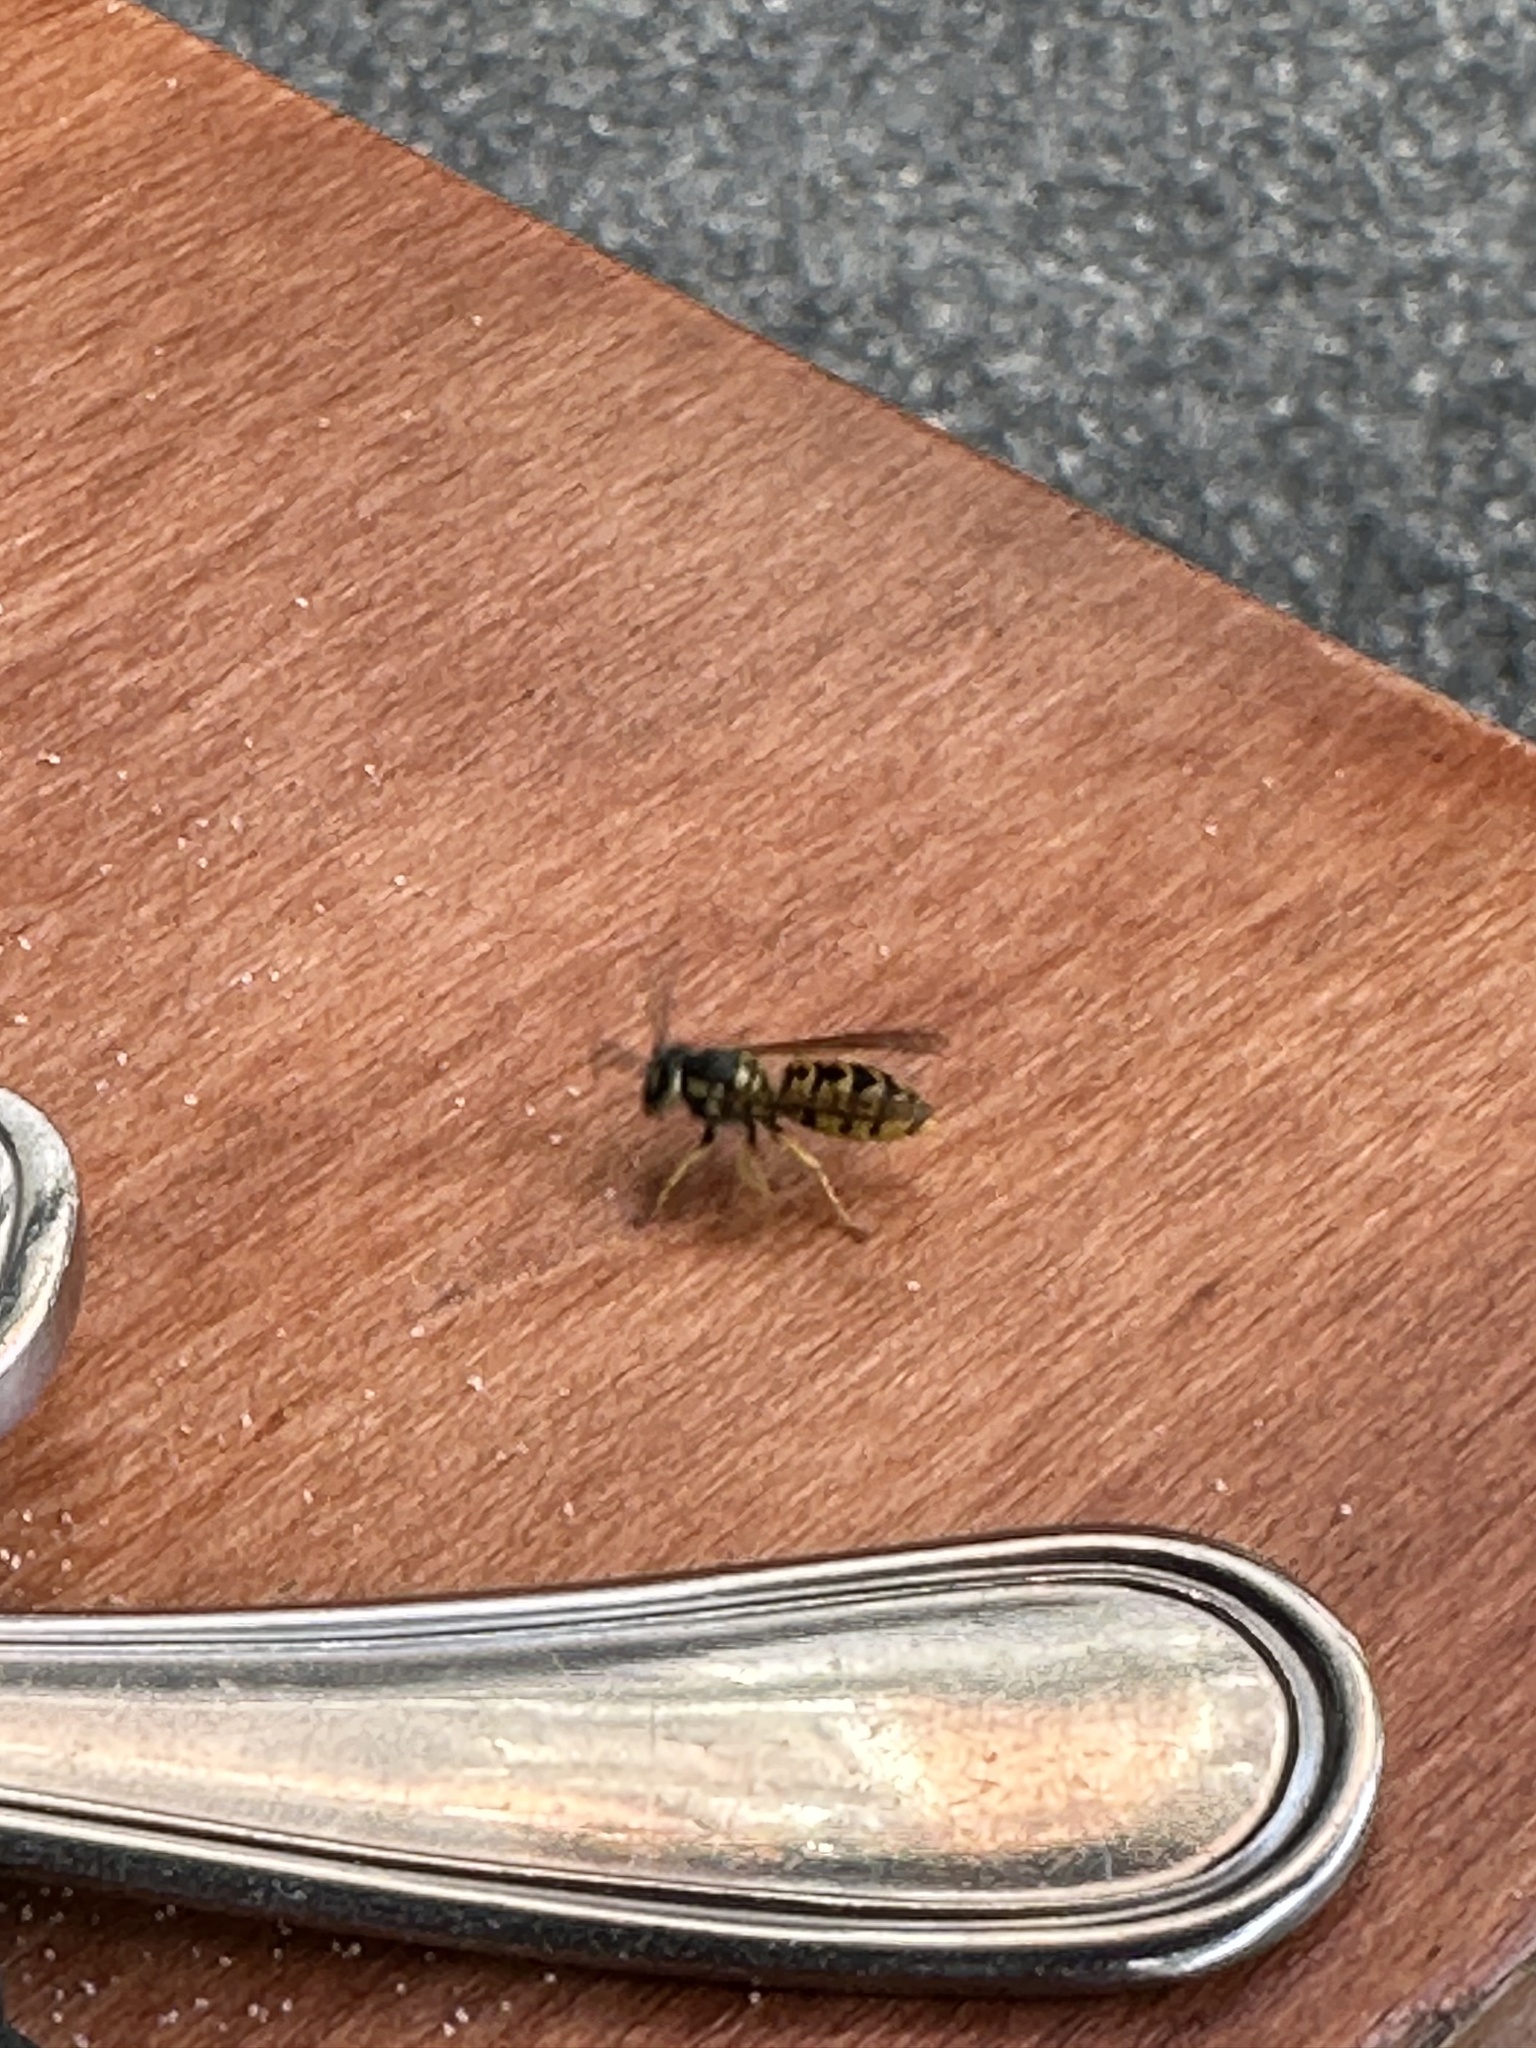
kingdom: Animalia
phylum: Arthropoda
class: Insecta
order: Hymenoptera
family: Vespidae
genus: Vespula
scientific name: Vespula germanica
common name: German wasp
